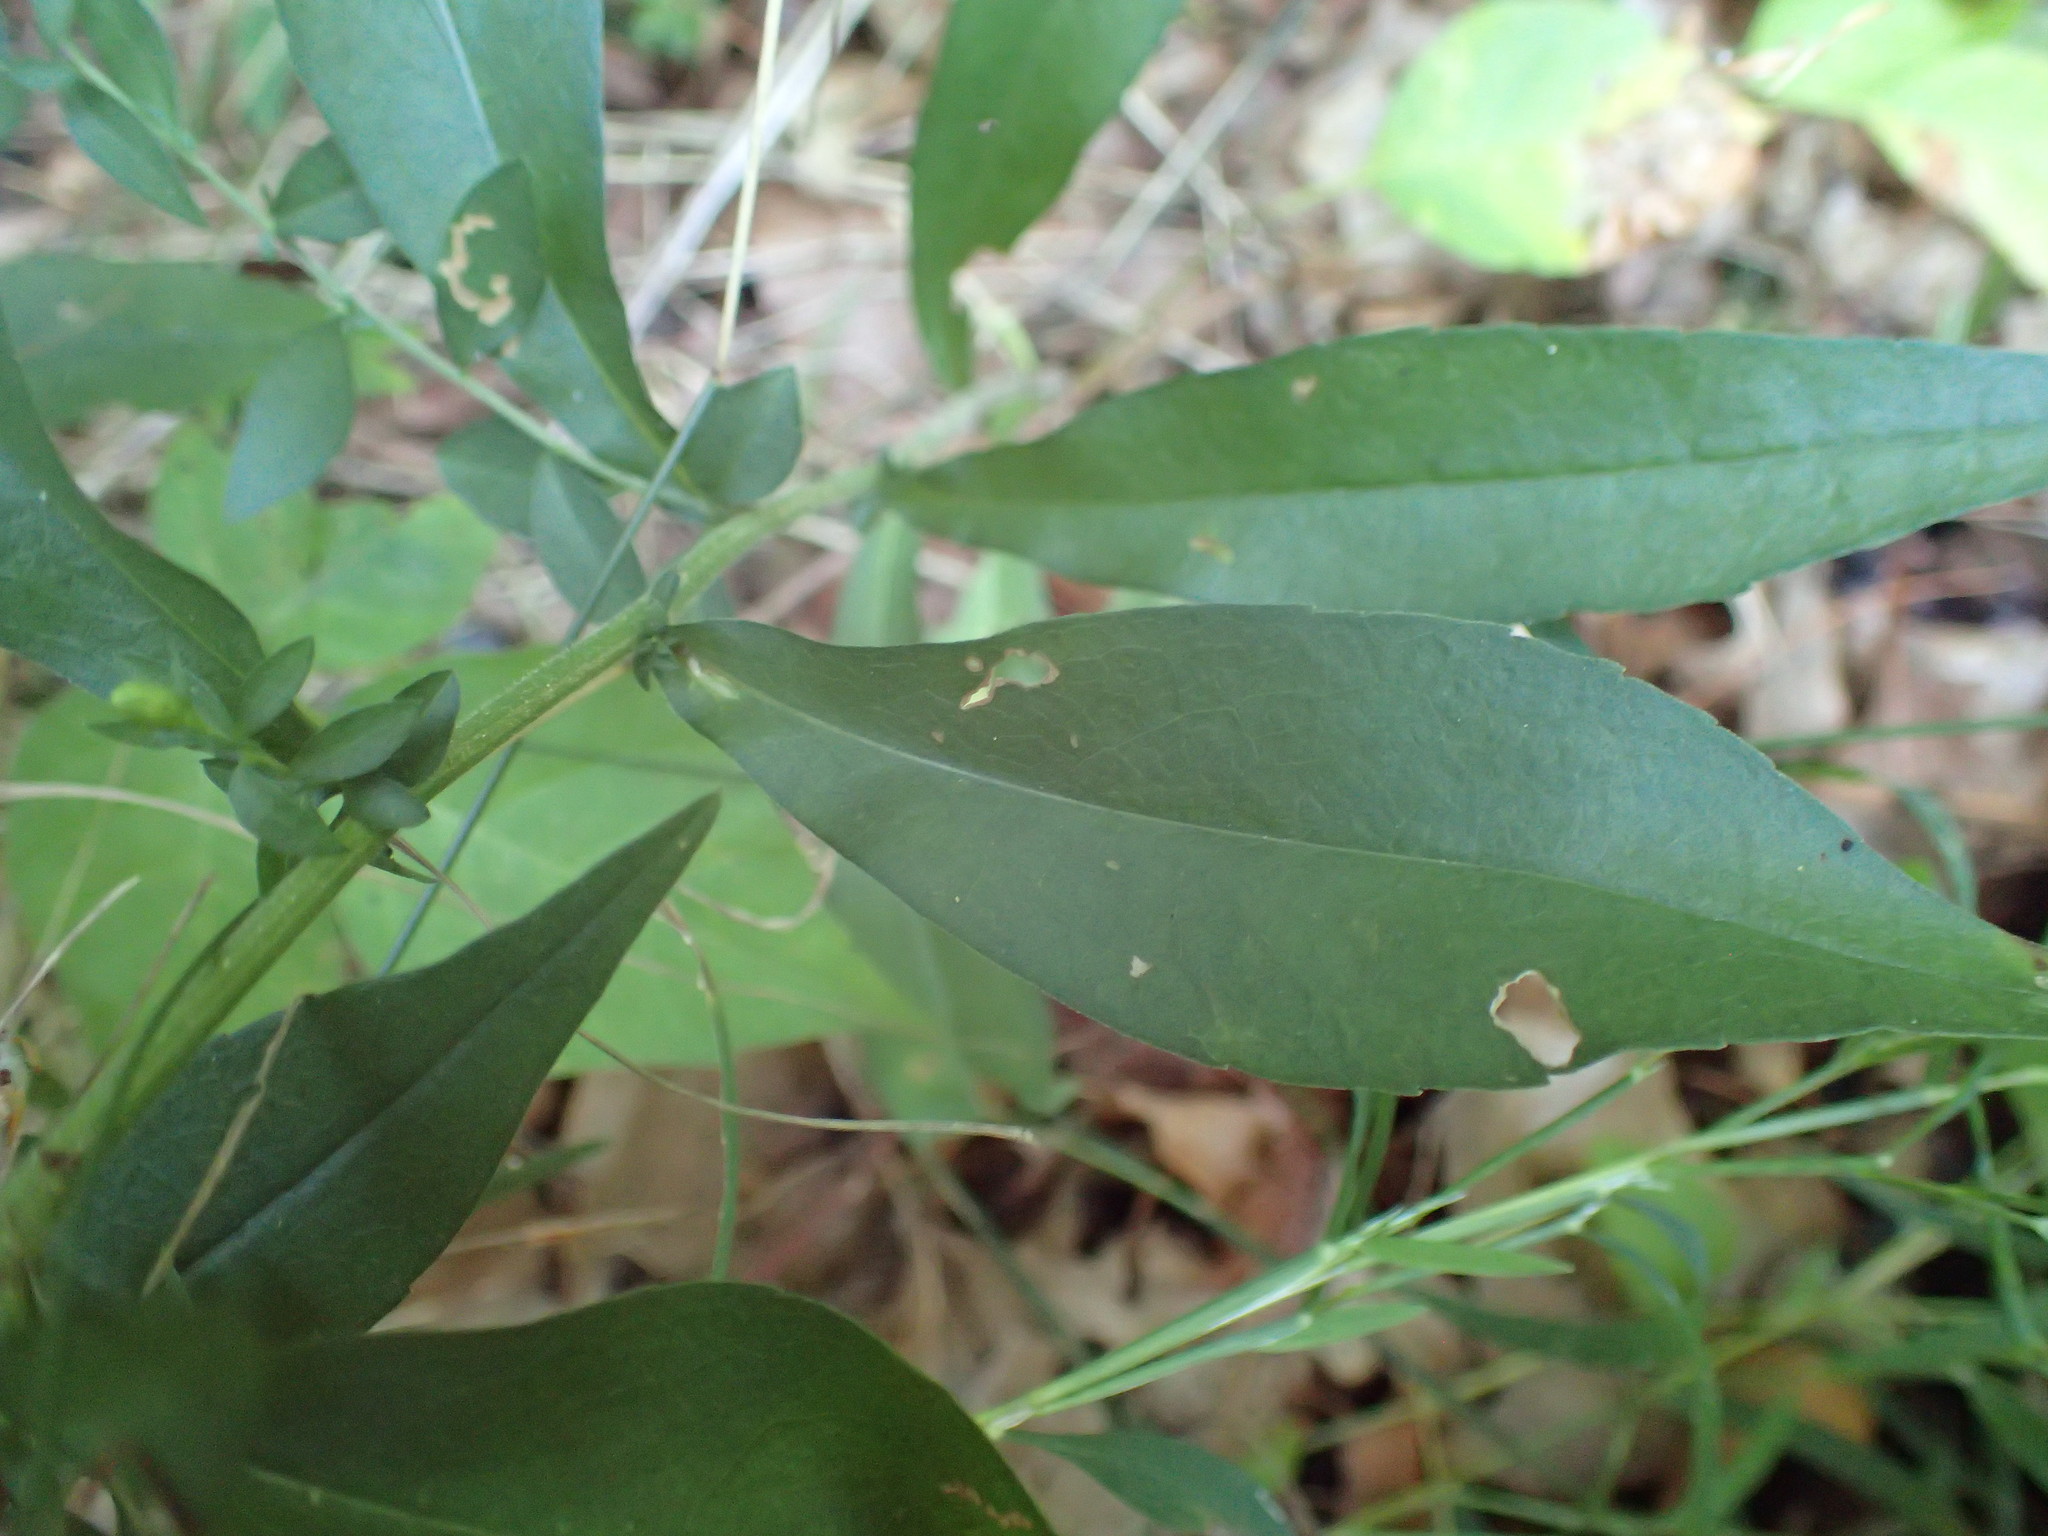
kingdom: Plantae
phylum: Tracheophyta
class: Magnoliopsida
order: Asterales
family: Asteraceae
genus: Symphyotrichum
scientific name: Symphyotrichum lateriflorum
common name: Calico aster
